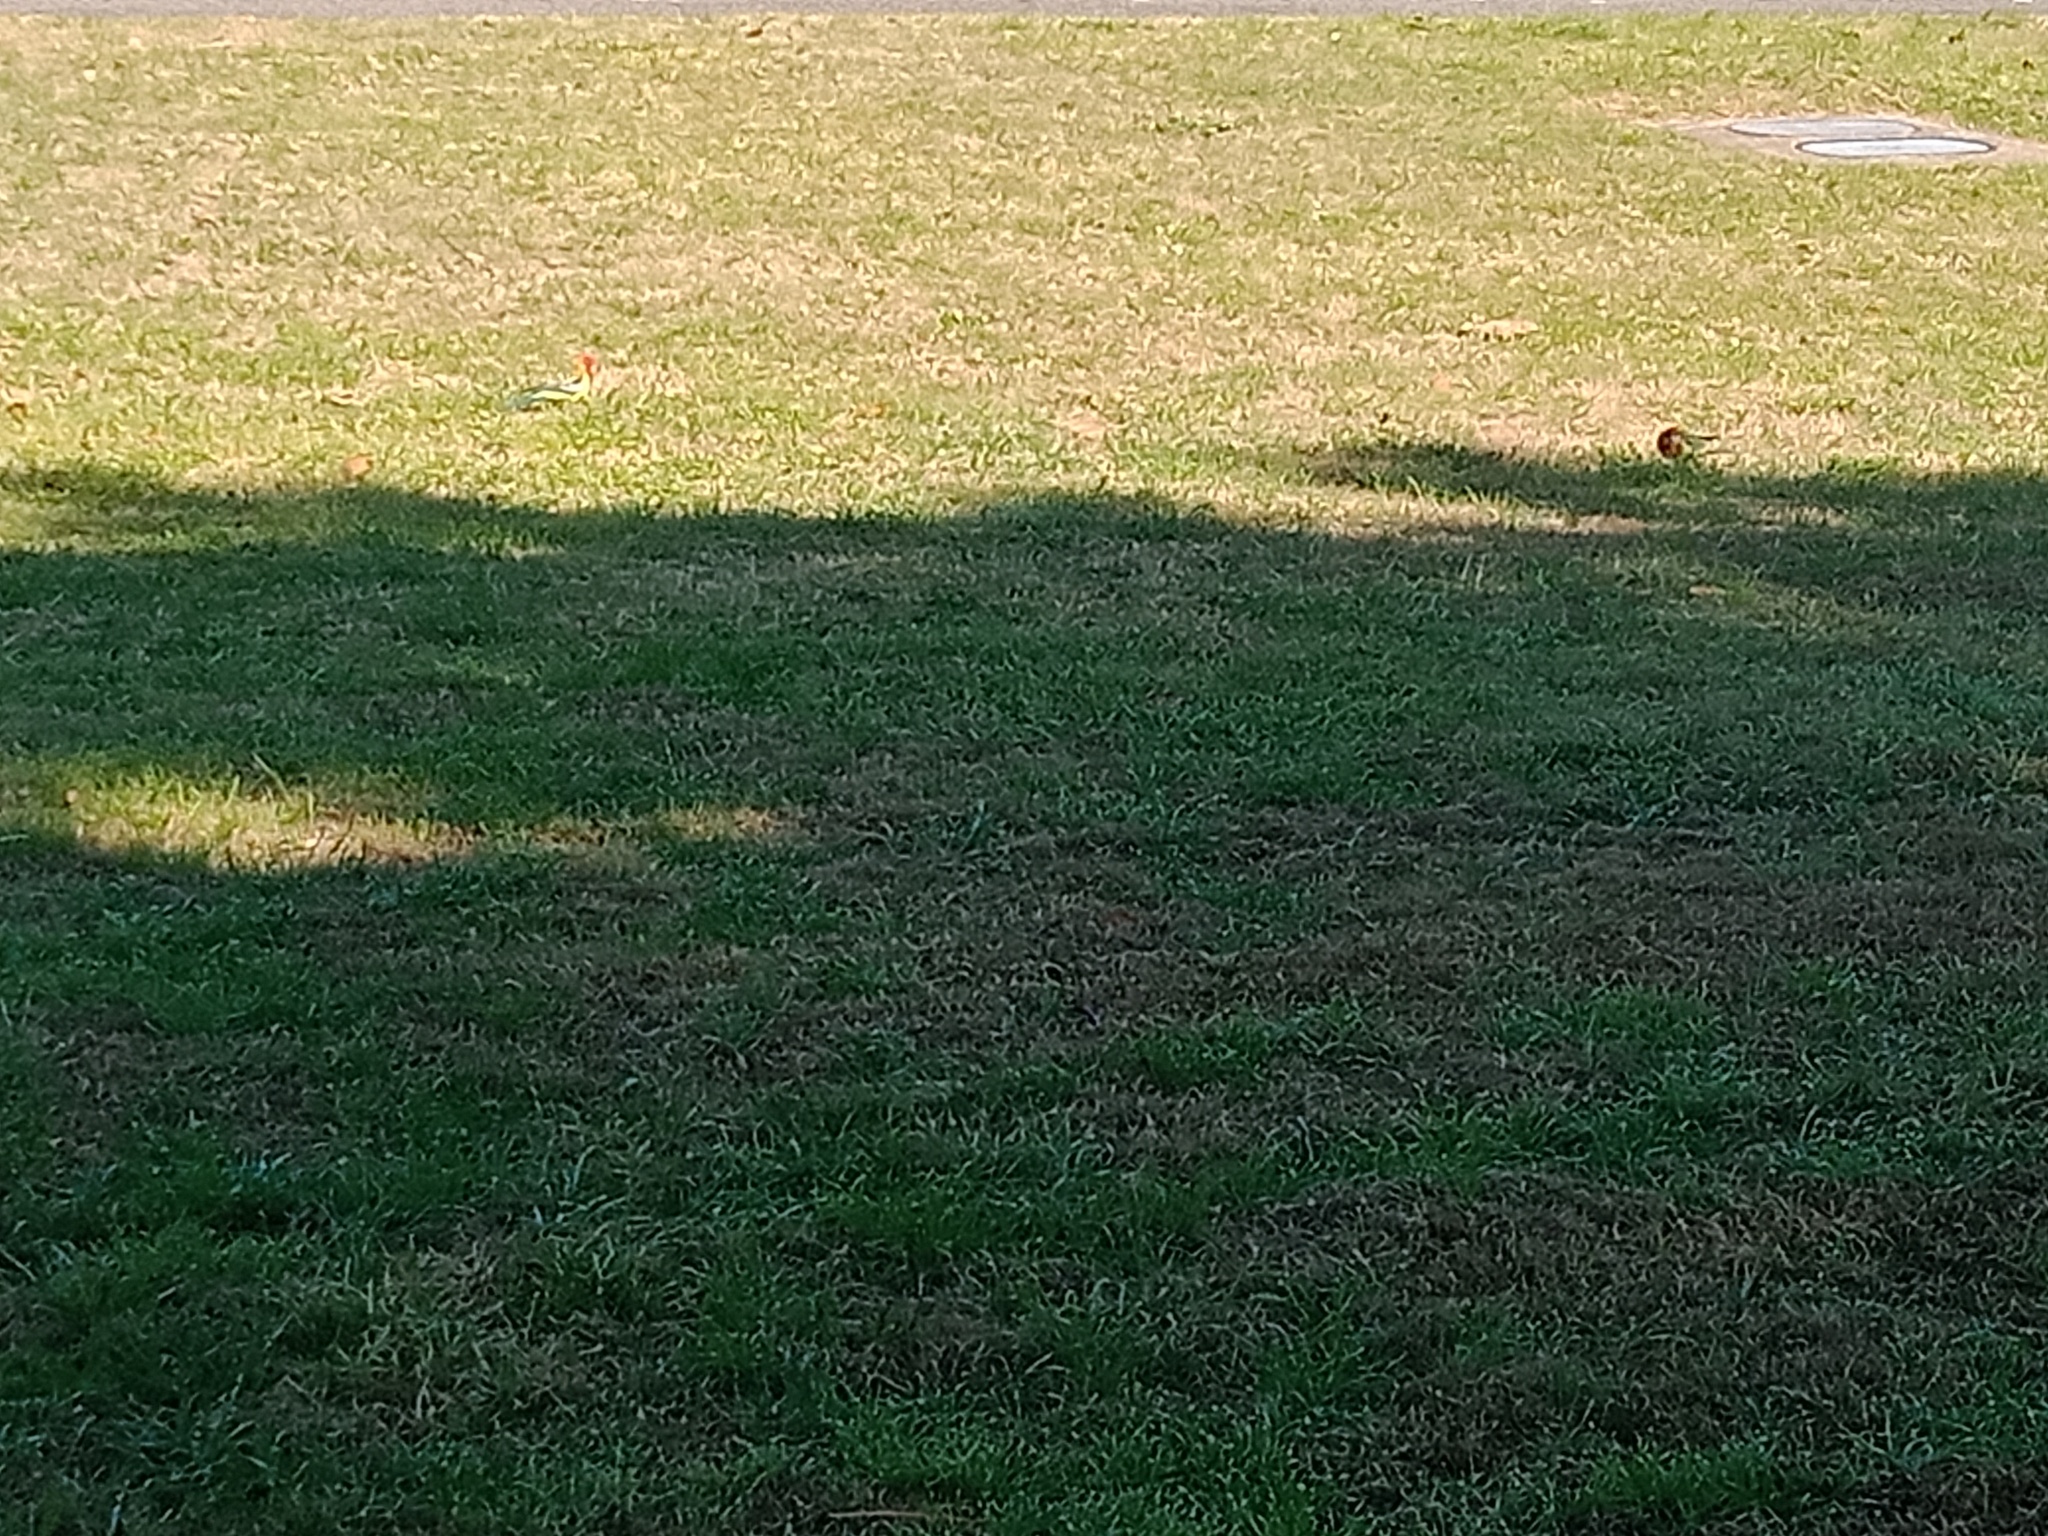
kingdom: Animalia
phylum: Chordata
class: Aves
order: Psittaciformes
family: Psittacidae
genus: Platycercus
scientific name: Platycercus eximius
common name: Eastern rosella
